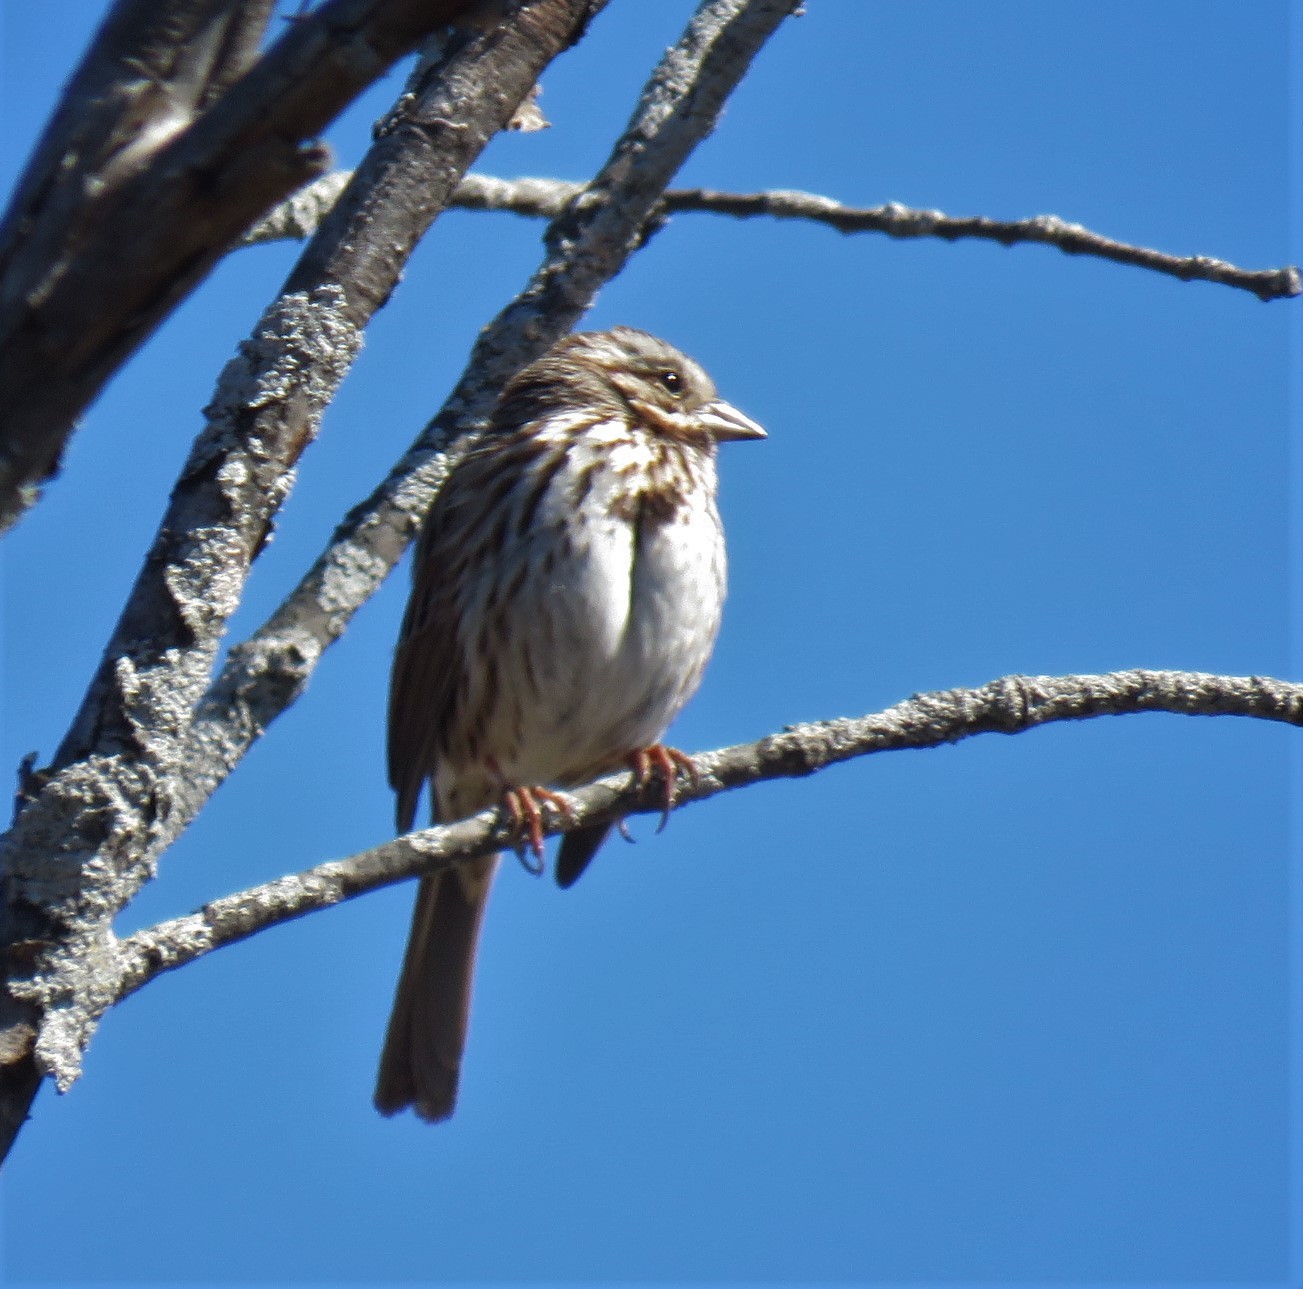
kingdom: Animalia
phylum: Chordata
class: Aves
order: Passeriformes
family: Passerellidae
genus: Melospiza
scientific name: Melospiza melodia
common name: Song sparrow
